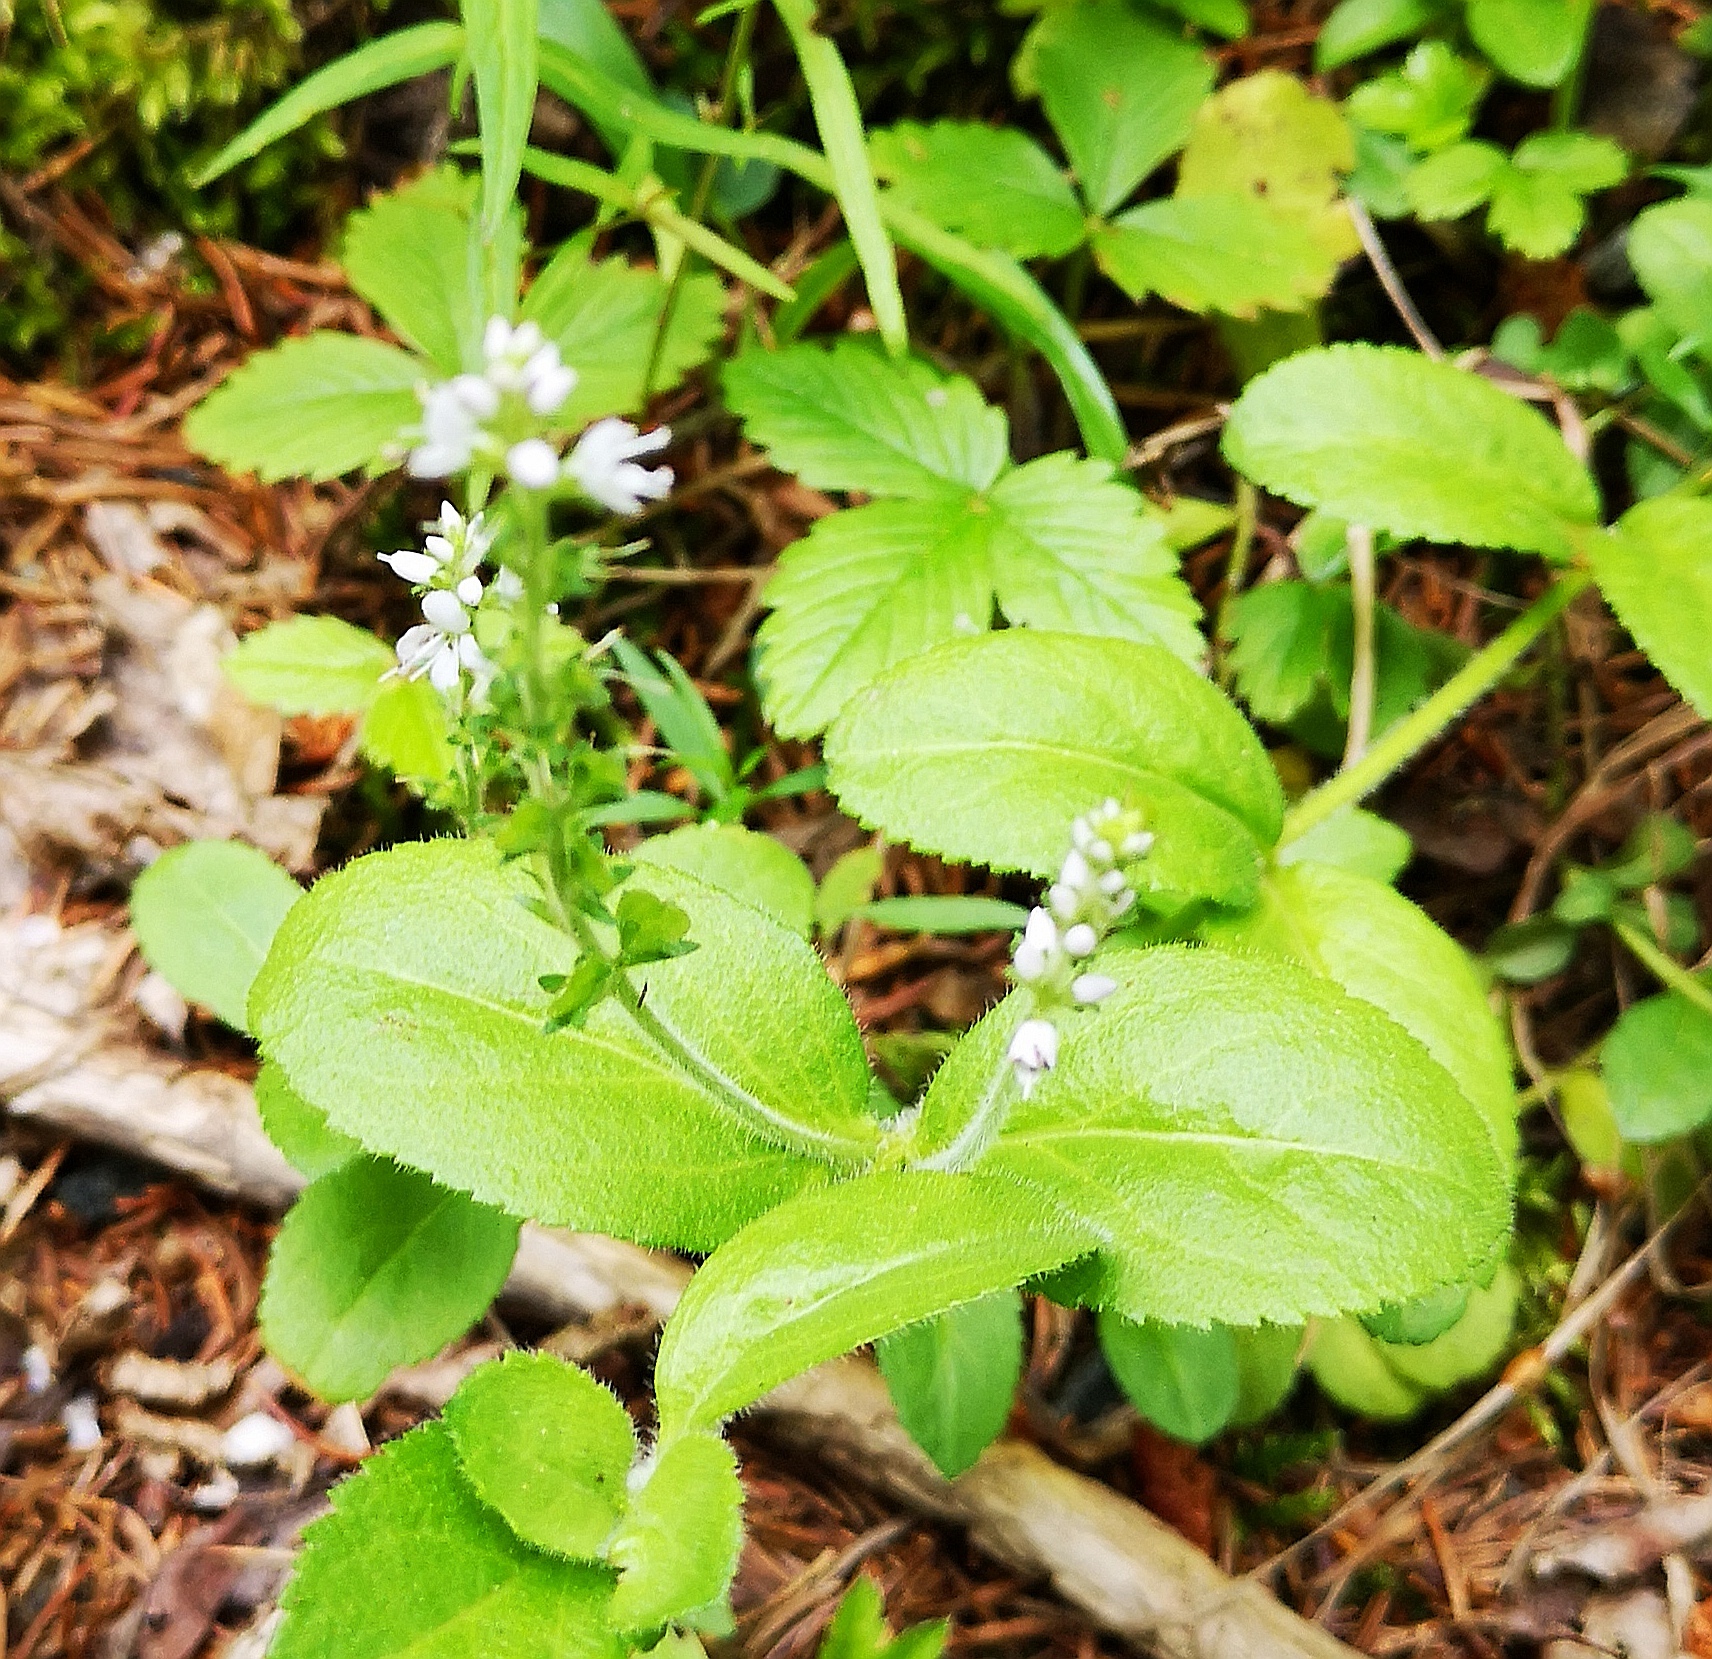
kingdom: Plantae
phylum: Tracheophyta
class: Magnoliopsida
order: Lamiales
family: Plantaginaceae
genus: Veronica
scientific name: Veronica officinalis
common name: Common speedwell
